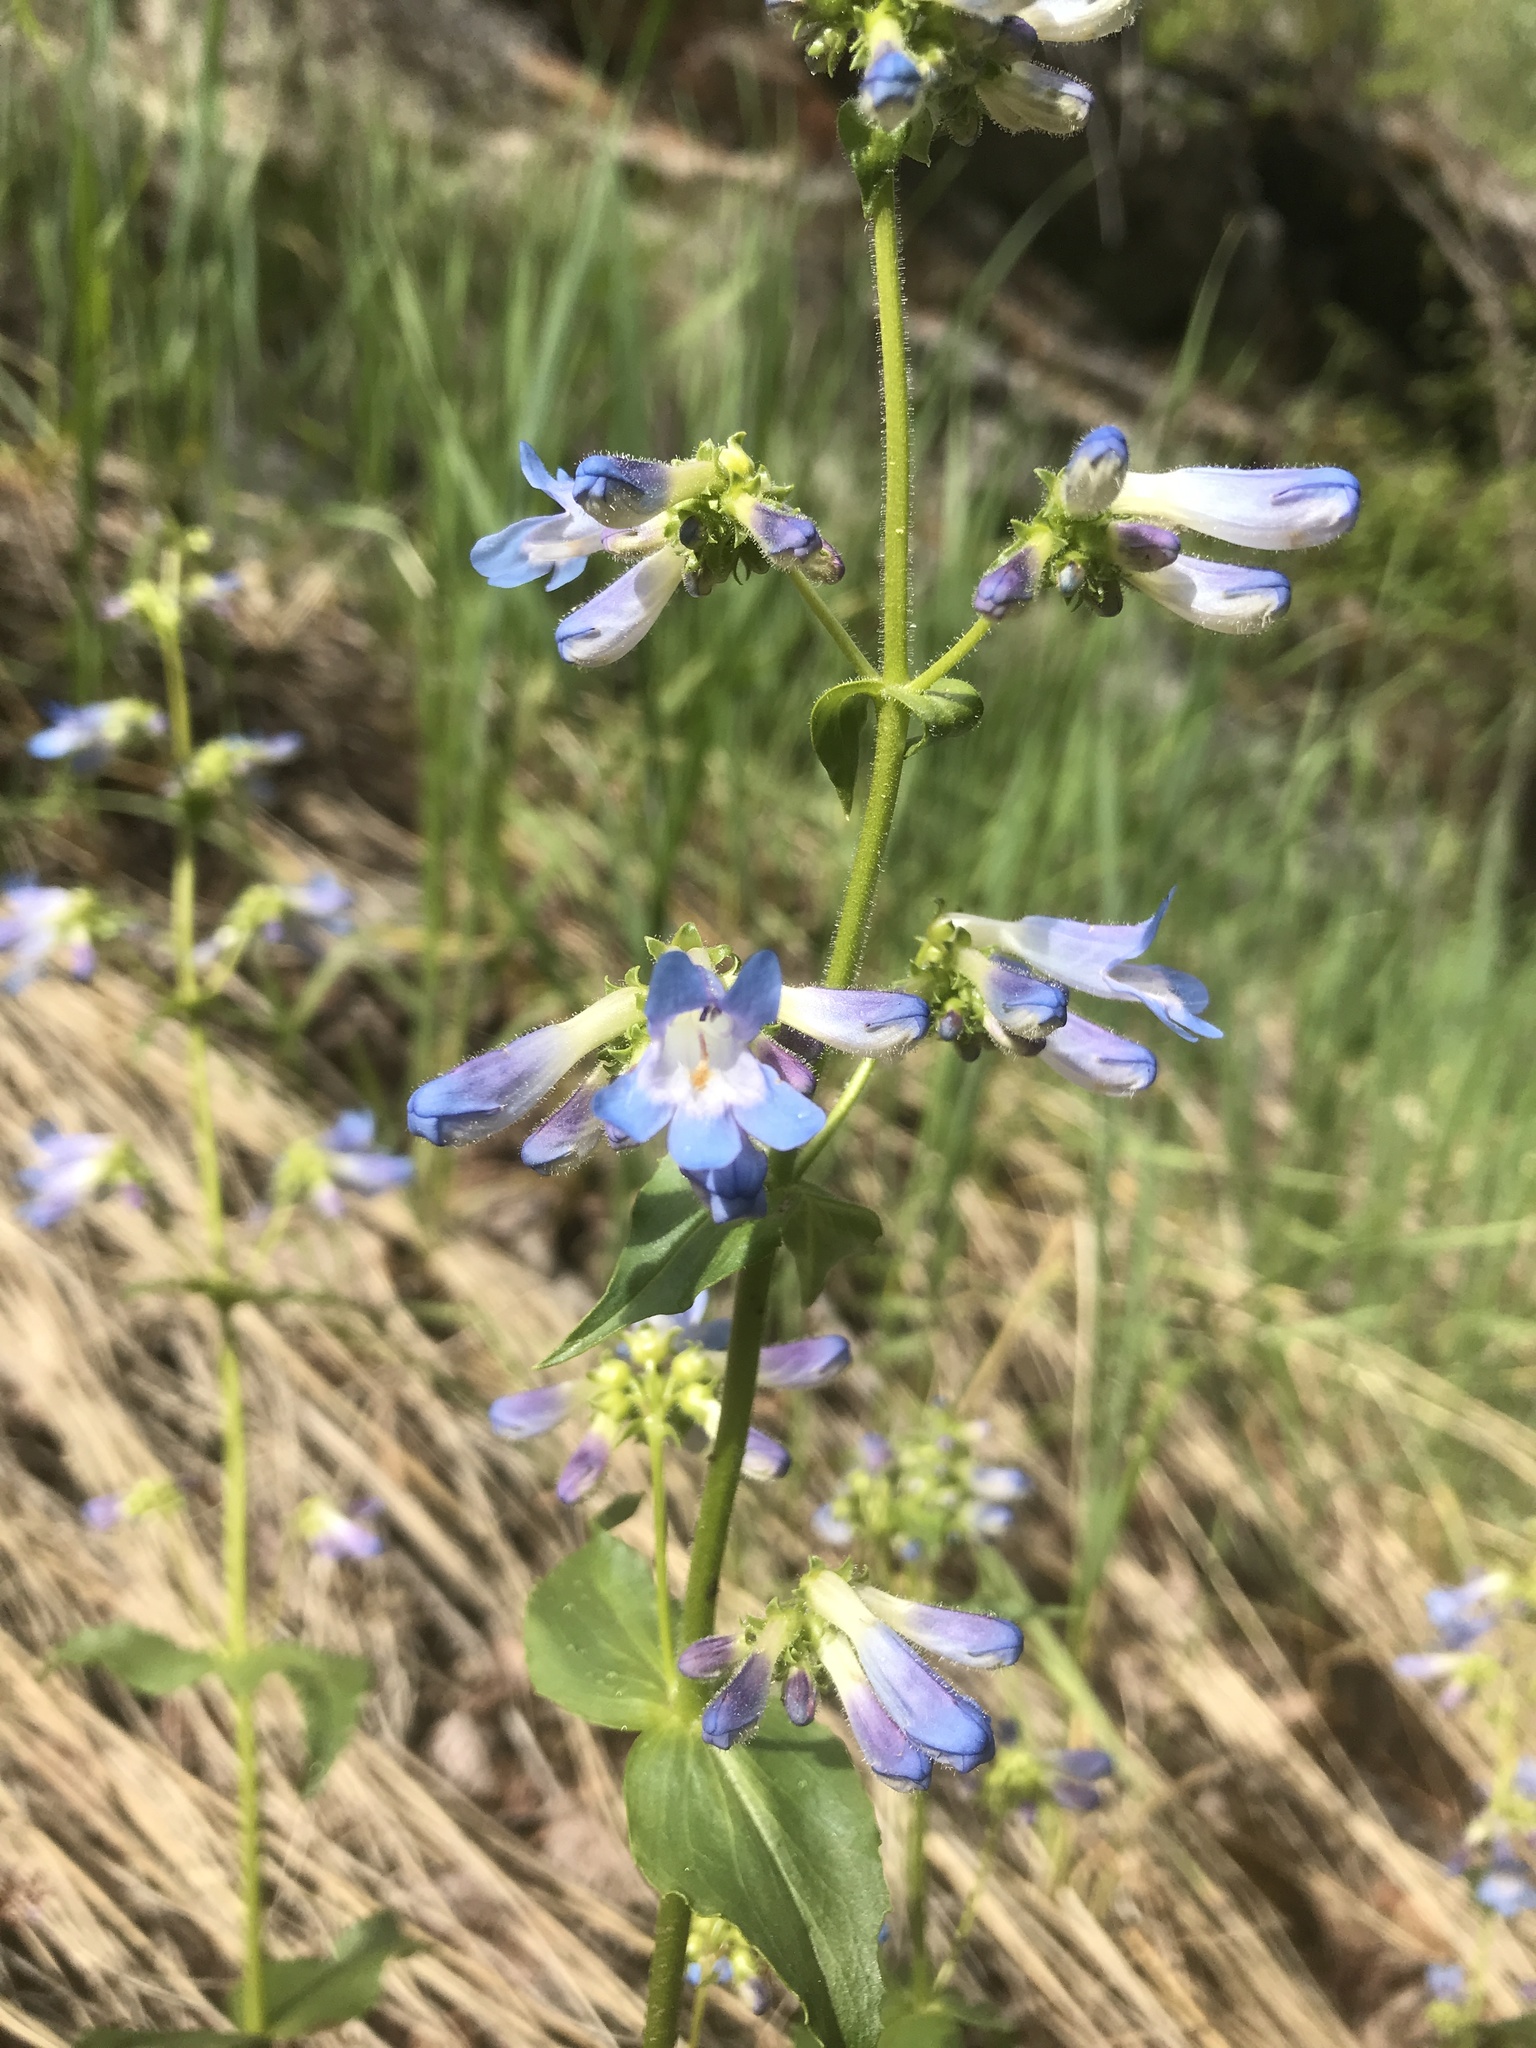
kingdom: Plantae
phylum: Tracheophyta
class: Magnoliopsida
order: Lamiales
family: Plantaginaceae
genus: Penstemon
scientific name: Penstemon wilcoxii
